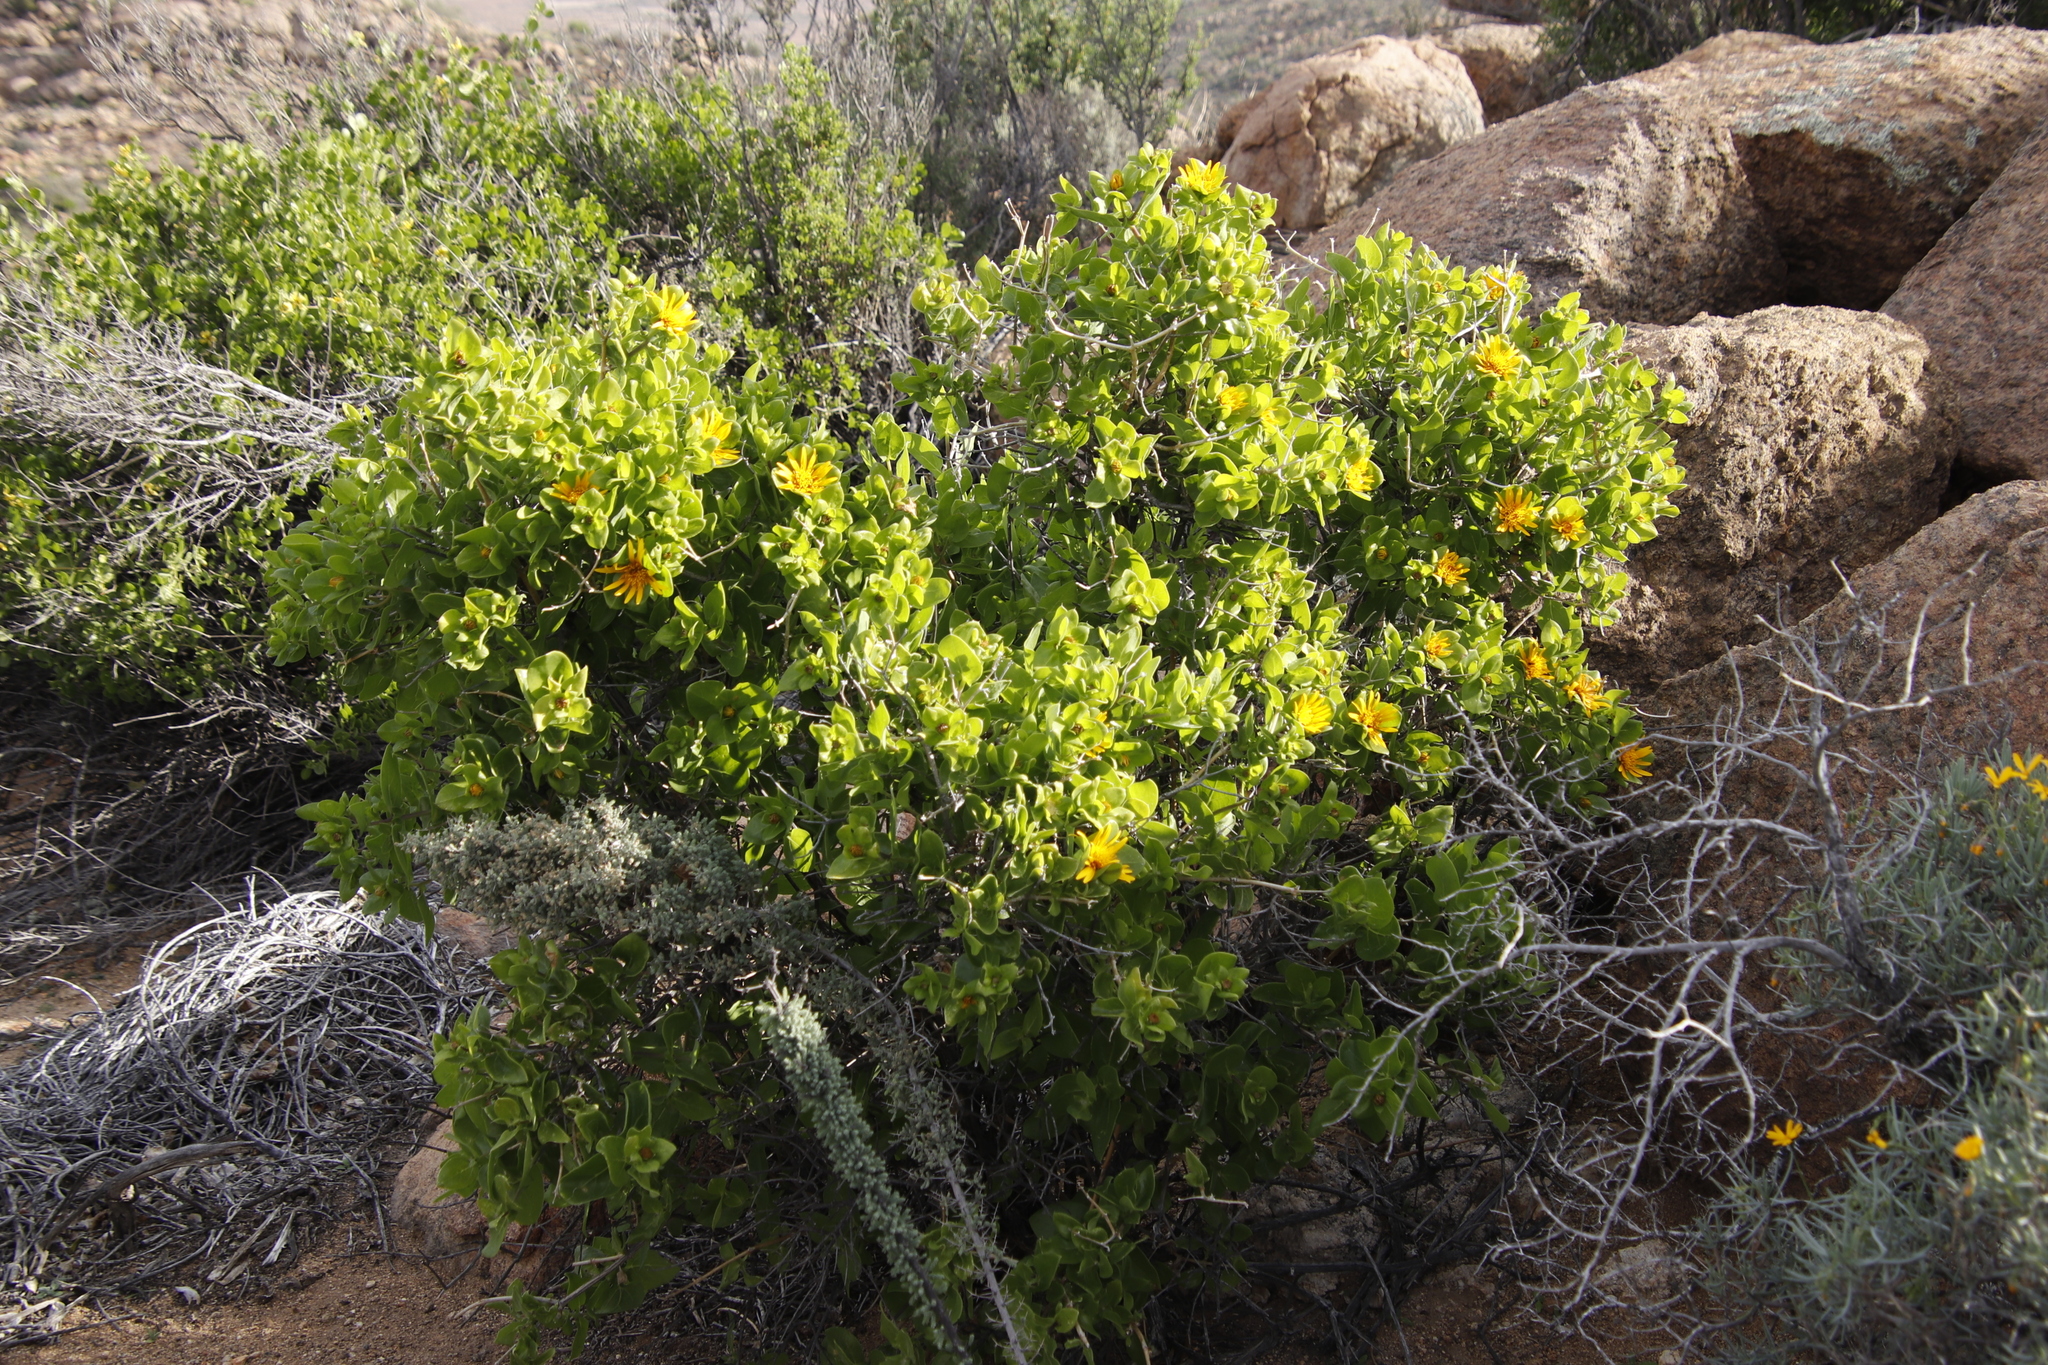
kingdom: Plantae
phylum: Tracheophyta
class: Magnoliopsida
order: Asterales
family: Asteraceae
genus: Didelta
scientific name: Didelta spinosa
